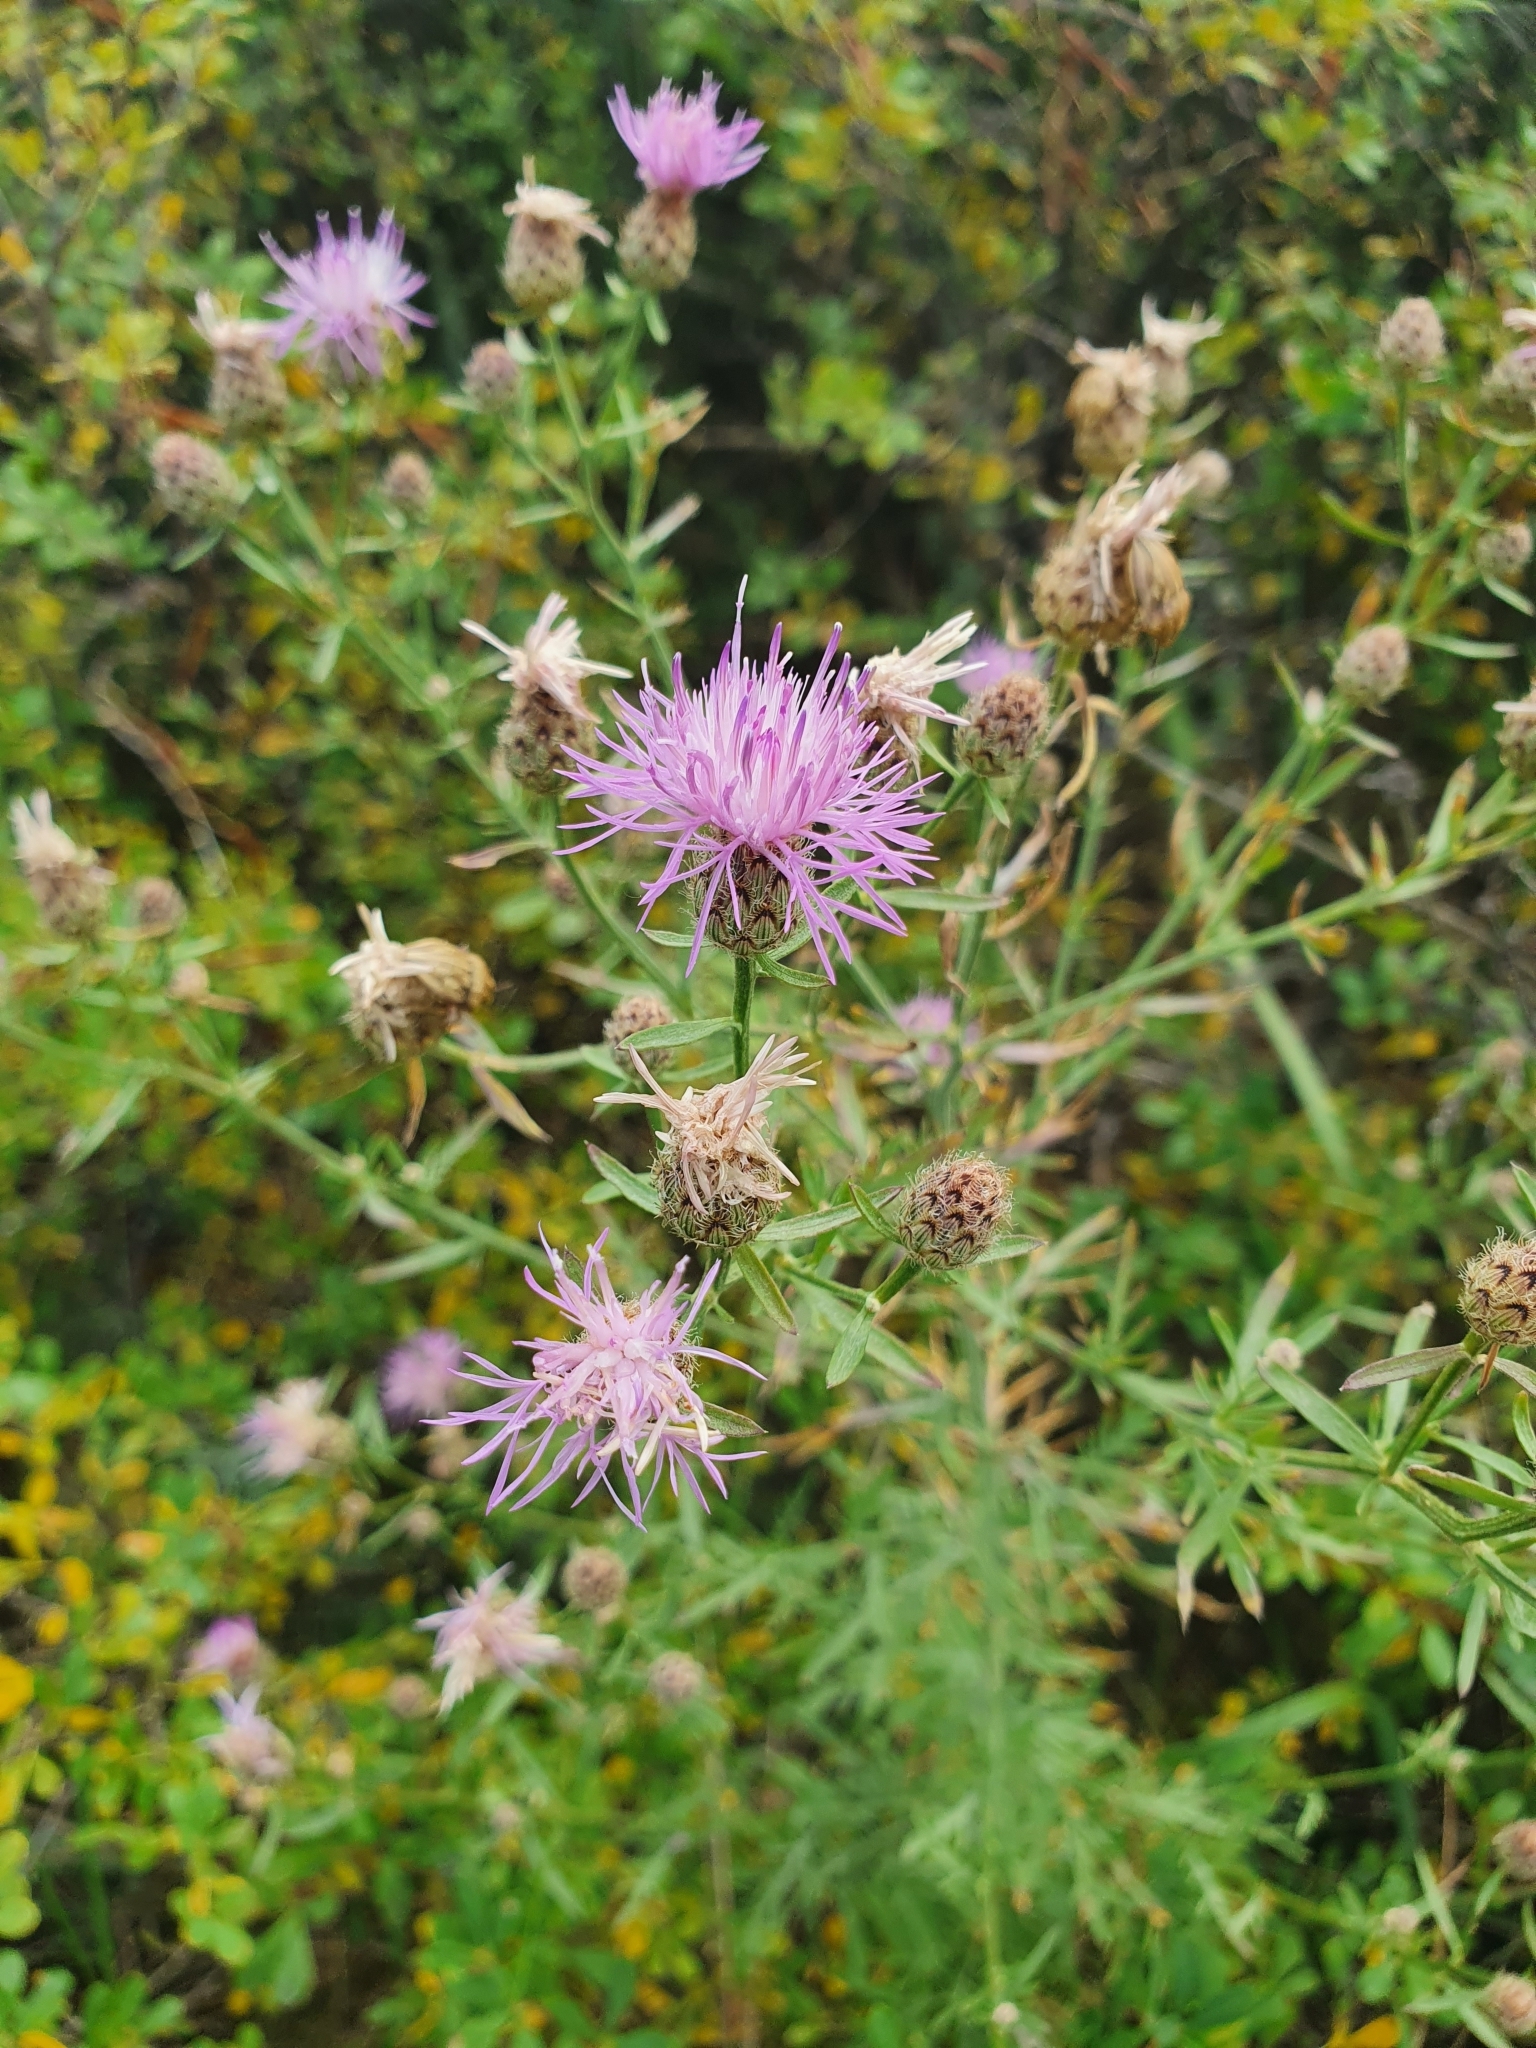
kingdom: Plantae
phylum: Tracheophyta
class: Magnoliopsida
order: Asterales
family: Asteraceae
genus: Centaurea
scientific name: Centaurea stoebe
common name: Spotted knapweed
